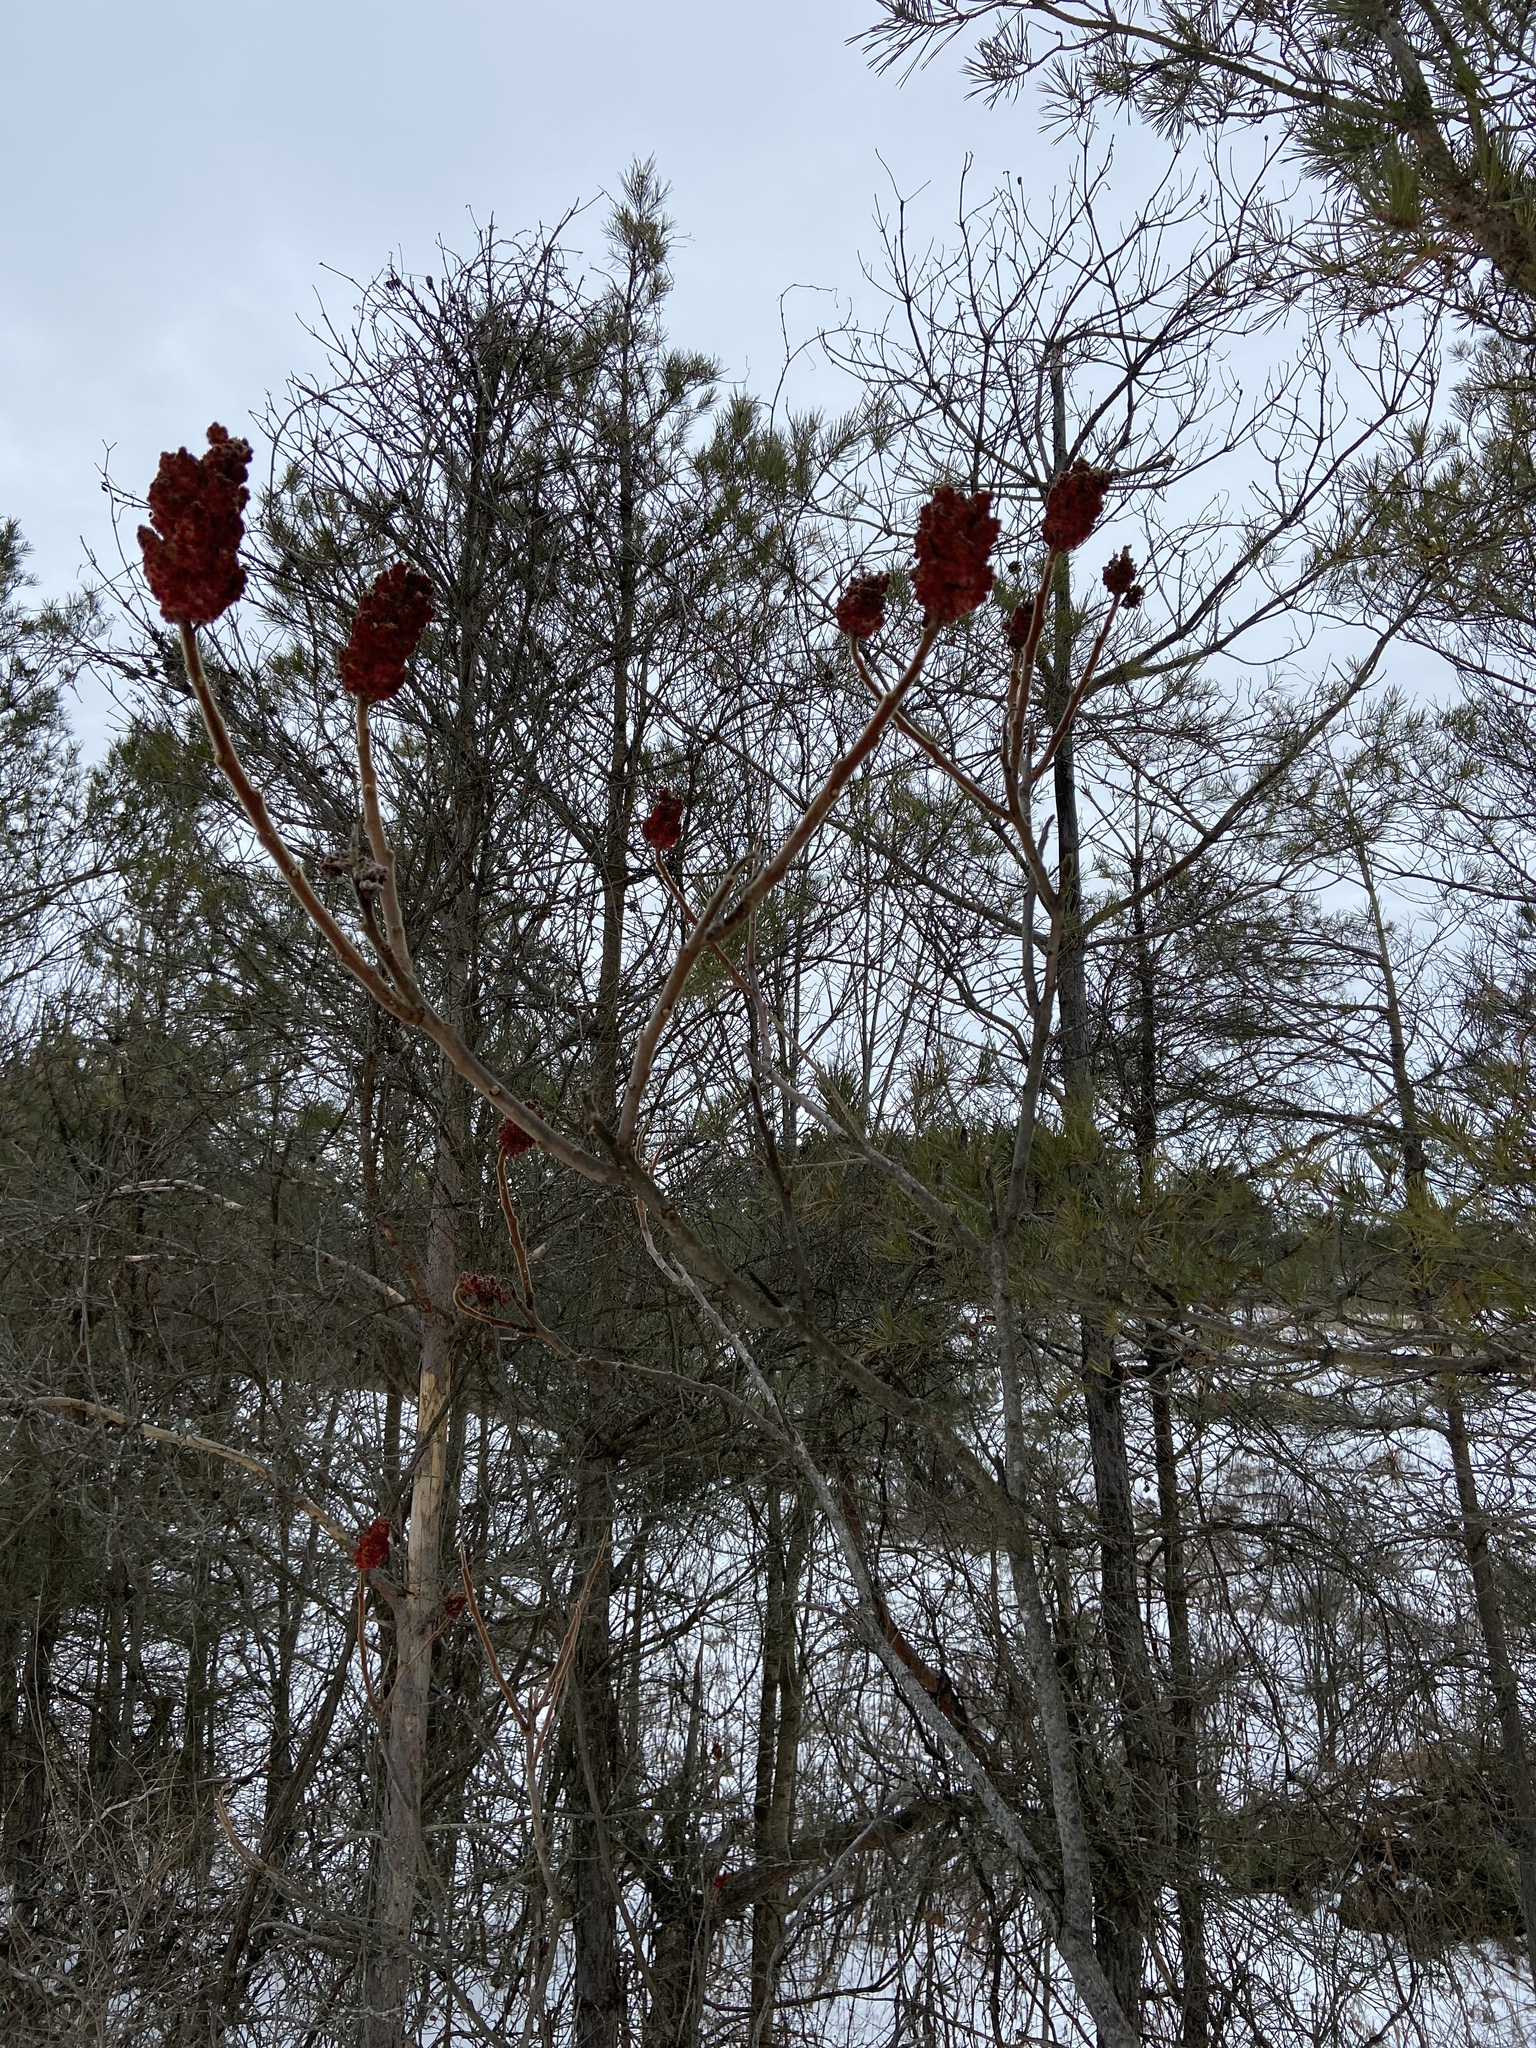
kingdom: Plantae
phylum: Tracheophyta
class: Magnoliopsida
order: Sapindales
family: Anacardiaceae
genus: Rhus
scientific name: Rhus typhina
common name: Staghorn sumac
